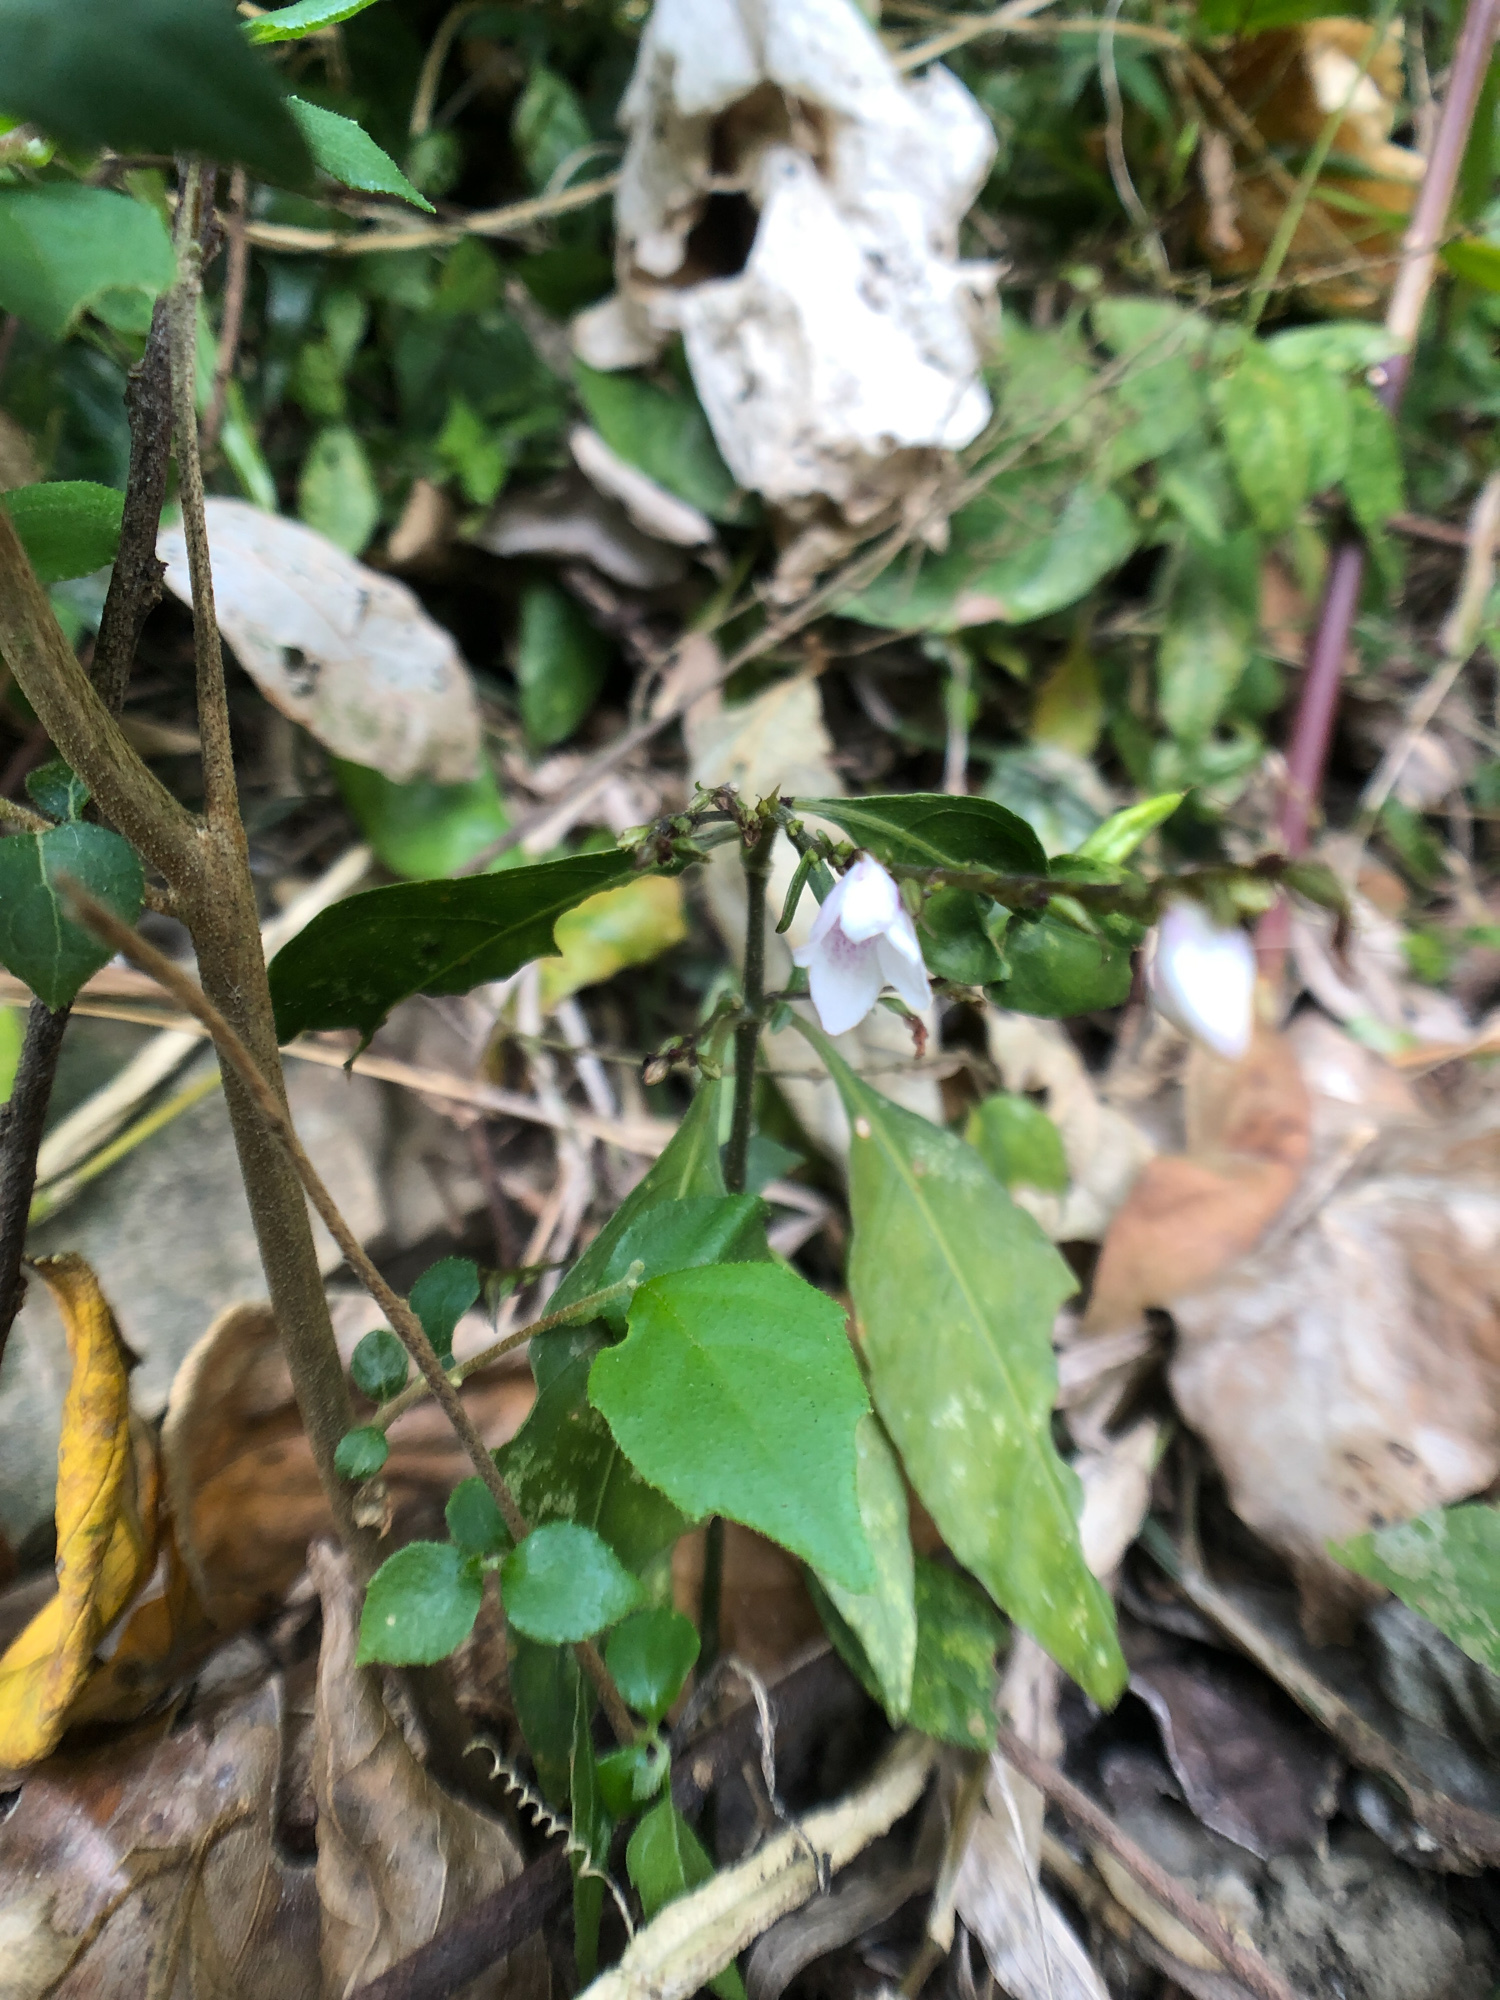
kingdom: Plantae
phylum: Tracheophyta
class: Magnoliopsida
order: Lamiales
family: Acanthaceae
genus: Codonacanthus
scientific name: Codonacanthus pauciflorus
